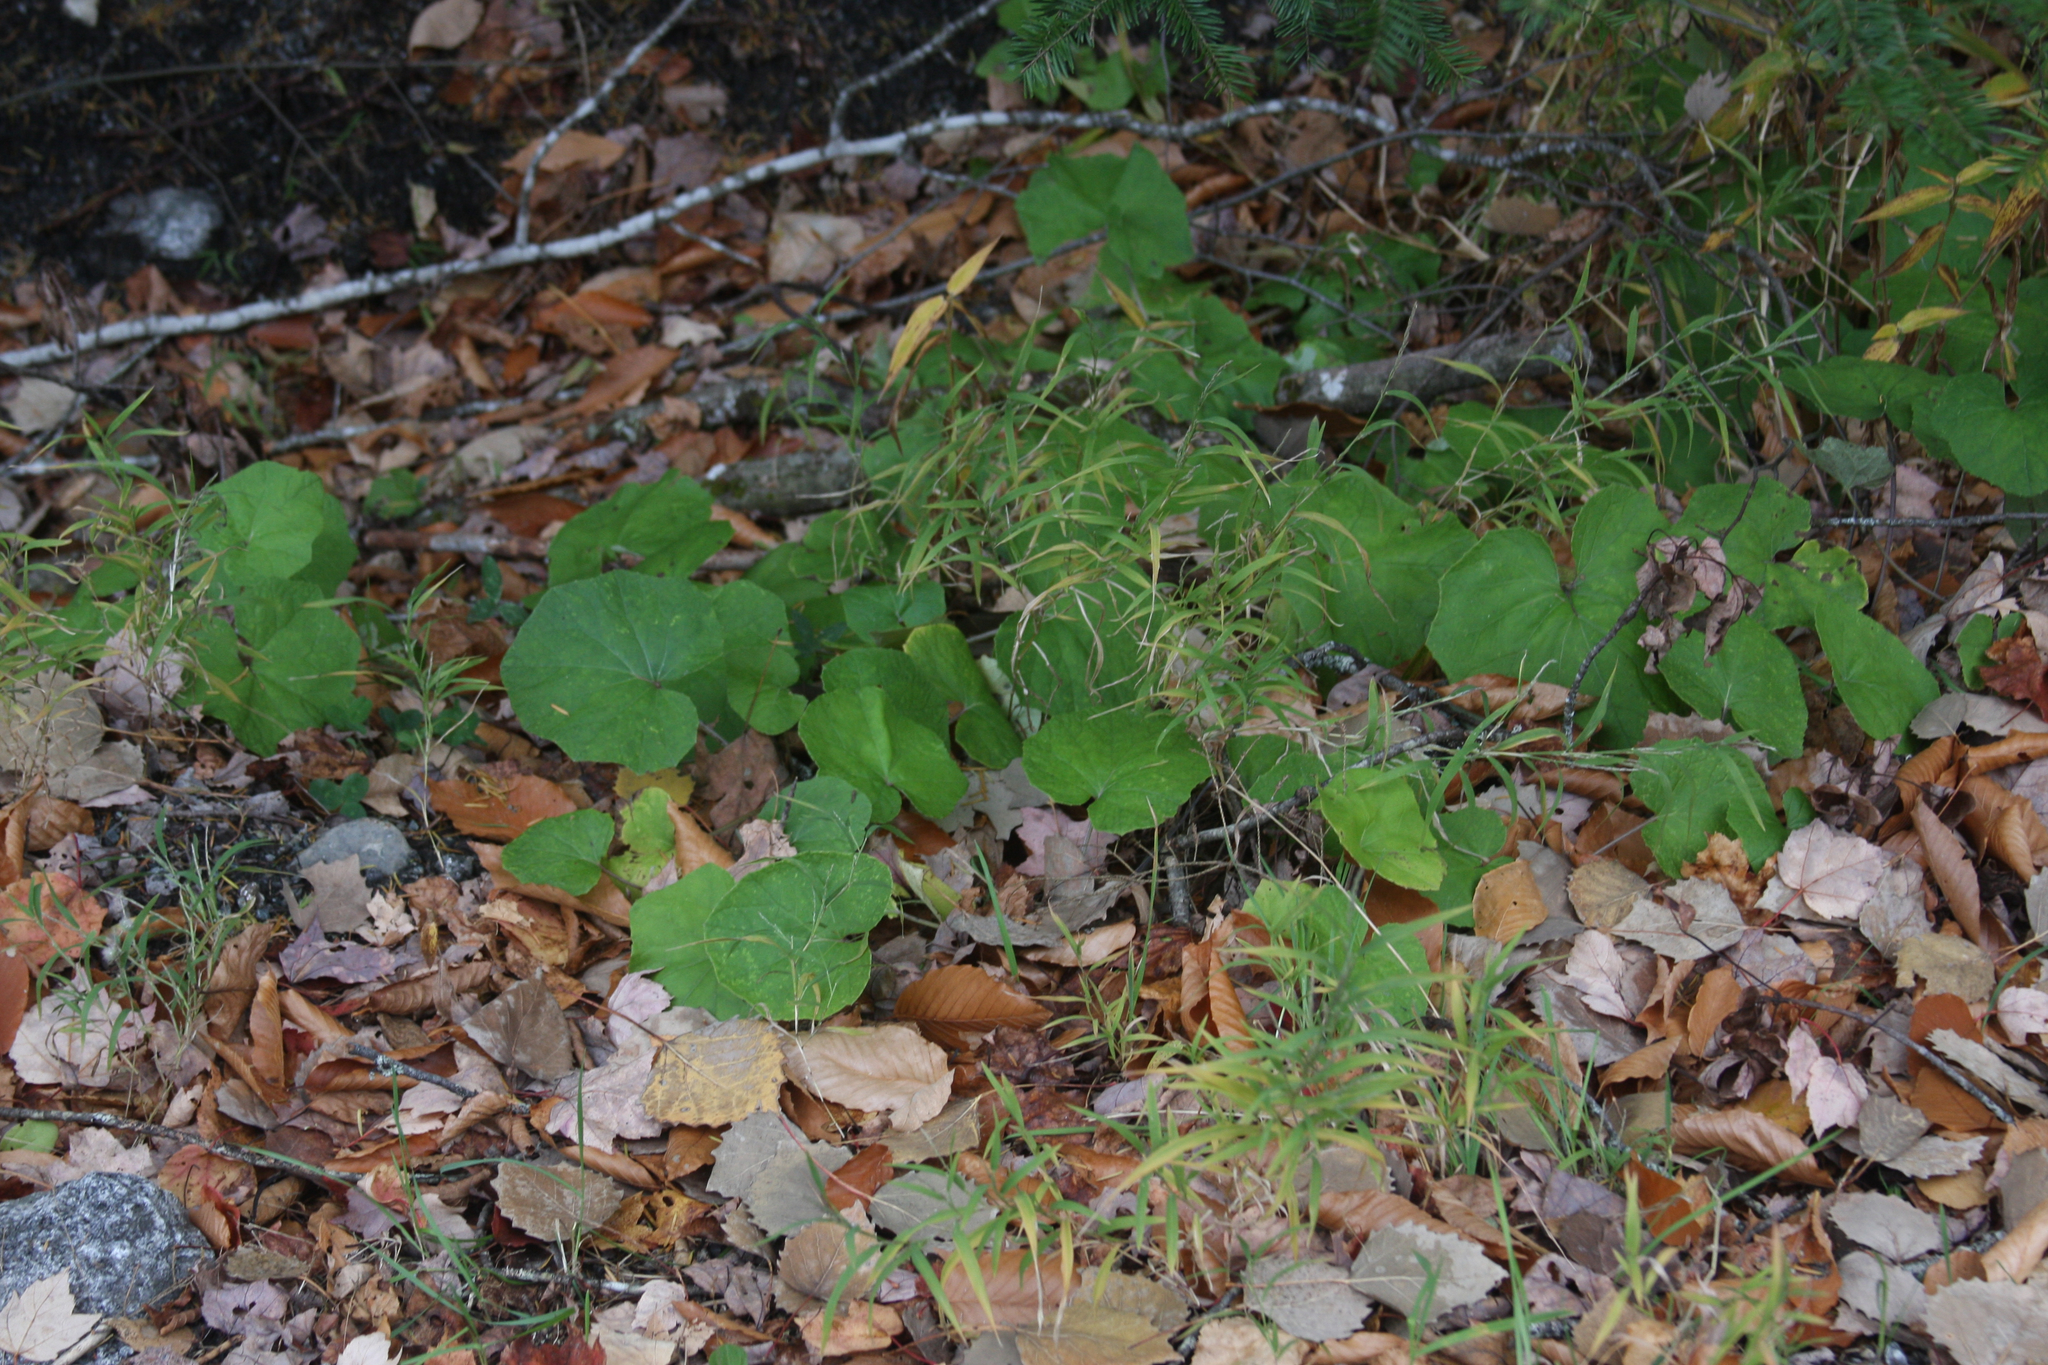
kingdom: Plantae
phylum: Tracheophyta
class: Magnoliopsida
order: Asterales
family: Asteraceae
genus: Tussilago
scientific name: Tussilago farfara
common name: Coltsfoot
